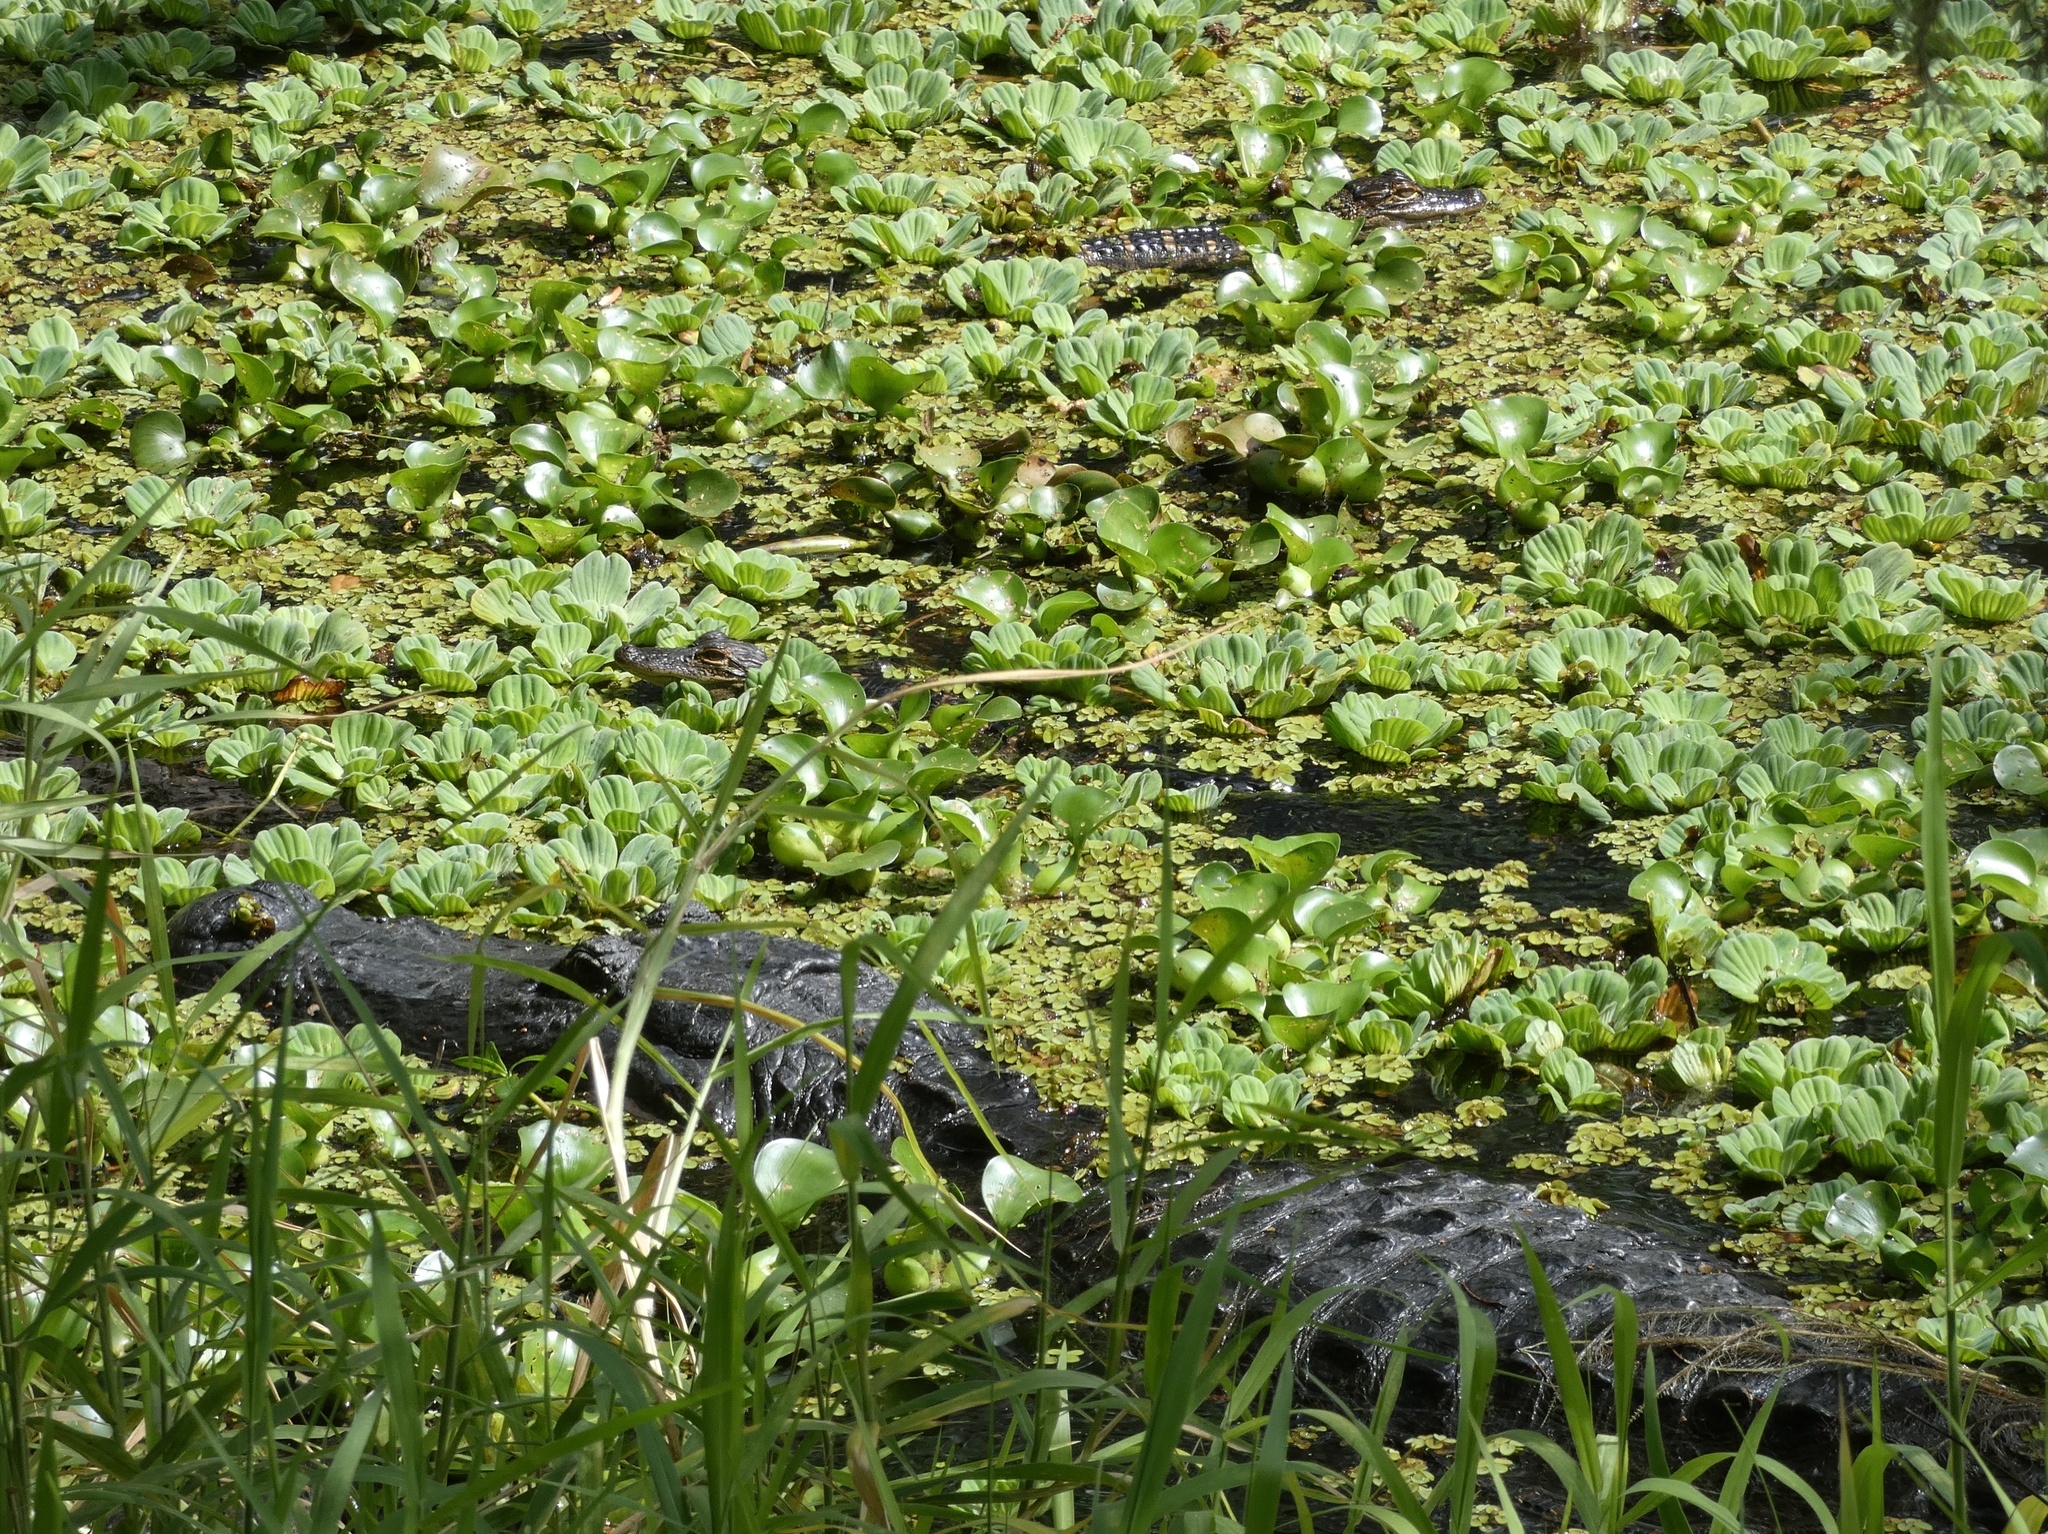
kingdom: Animalia
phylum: Chordata
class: Crocodylia
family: Alligatoridae
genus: Alligator
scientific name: Alligator mississippiensis
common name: American alligator
